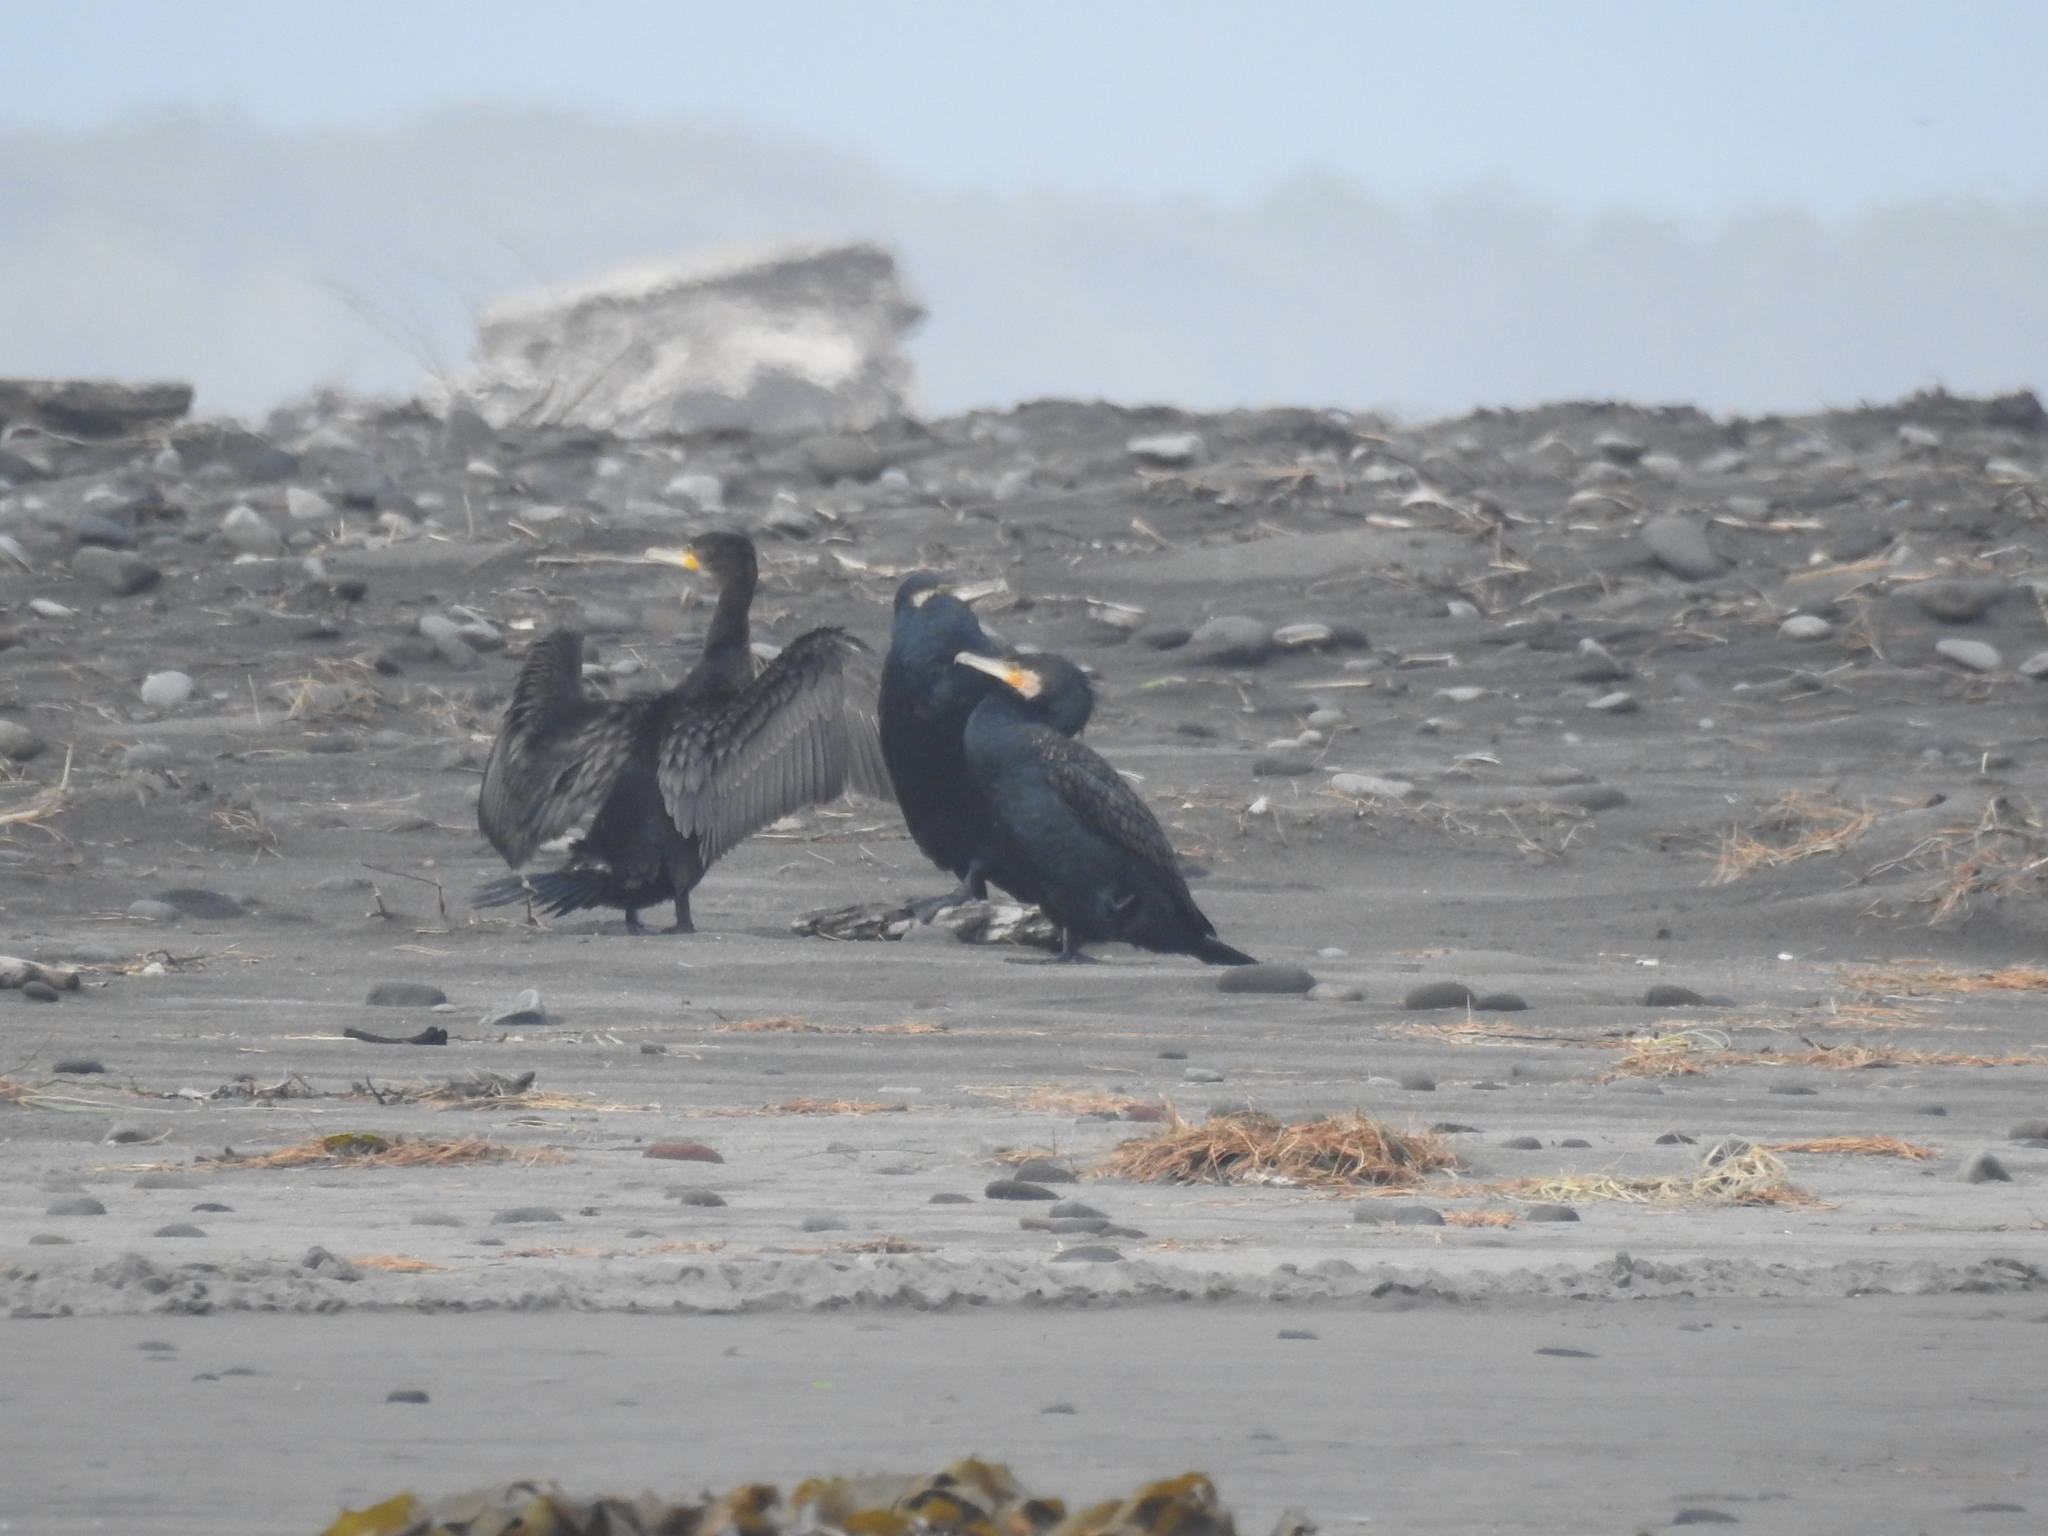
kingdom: Animalia
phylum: Chordata
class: Aves
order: Suliformes
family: Phalacrocoracidae
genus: Phalacrocorax
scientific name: Phalacrocorax carbo
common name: Great cormorant
